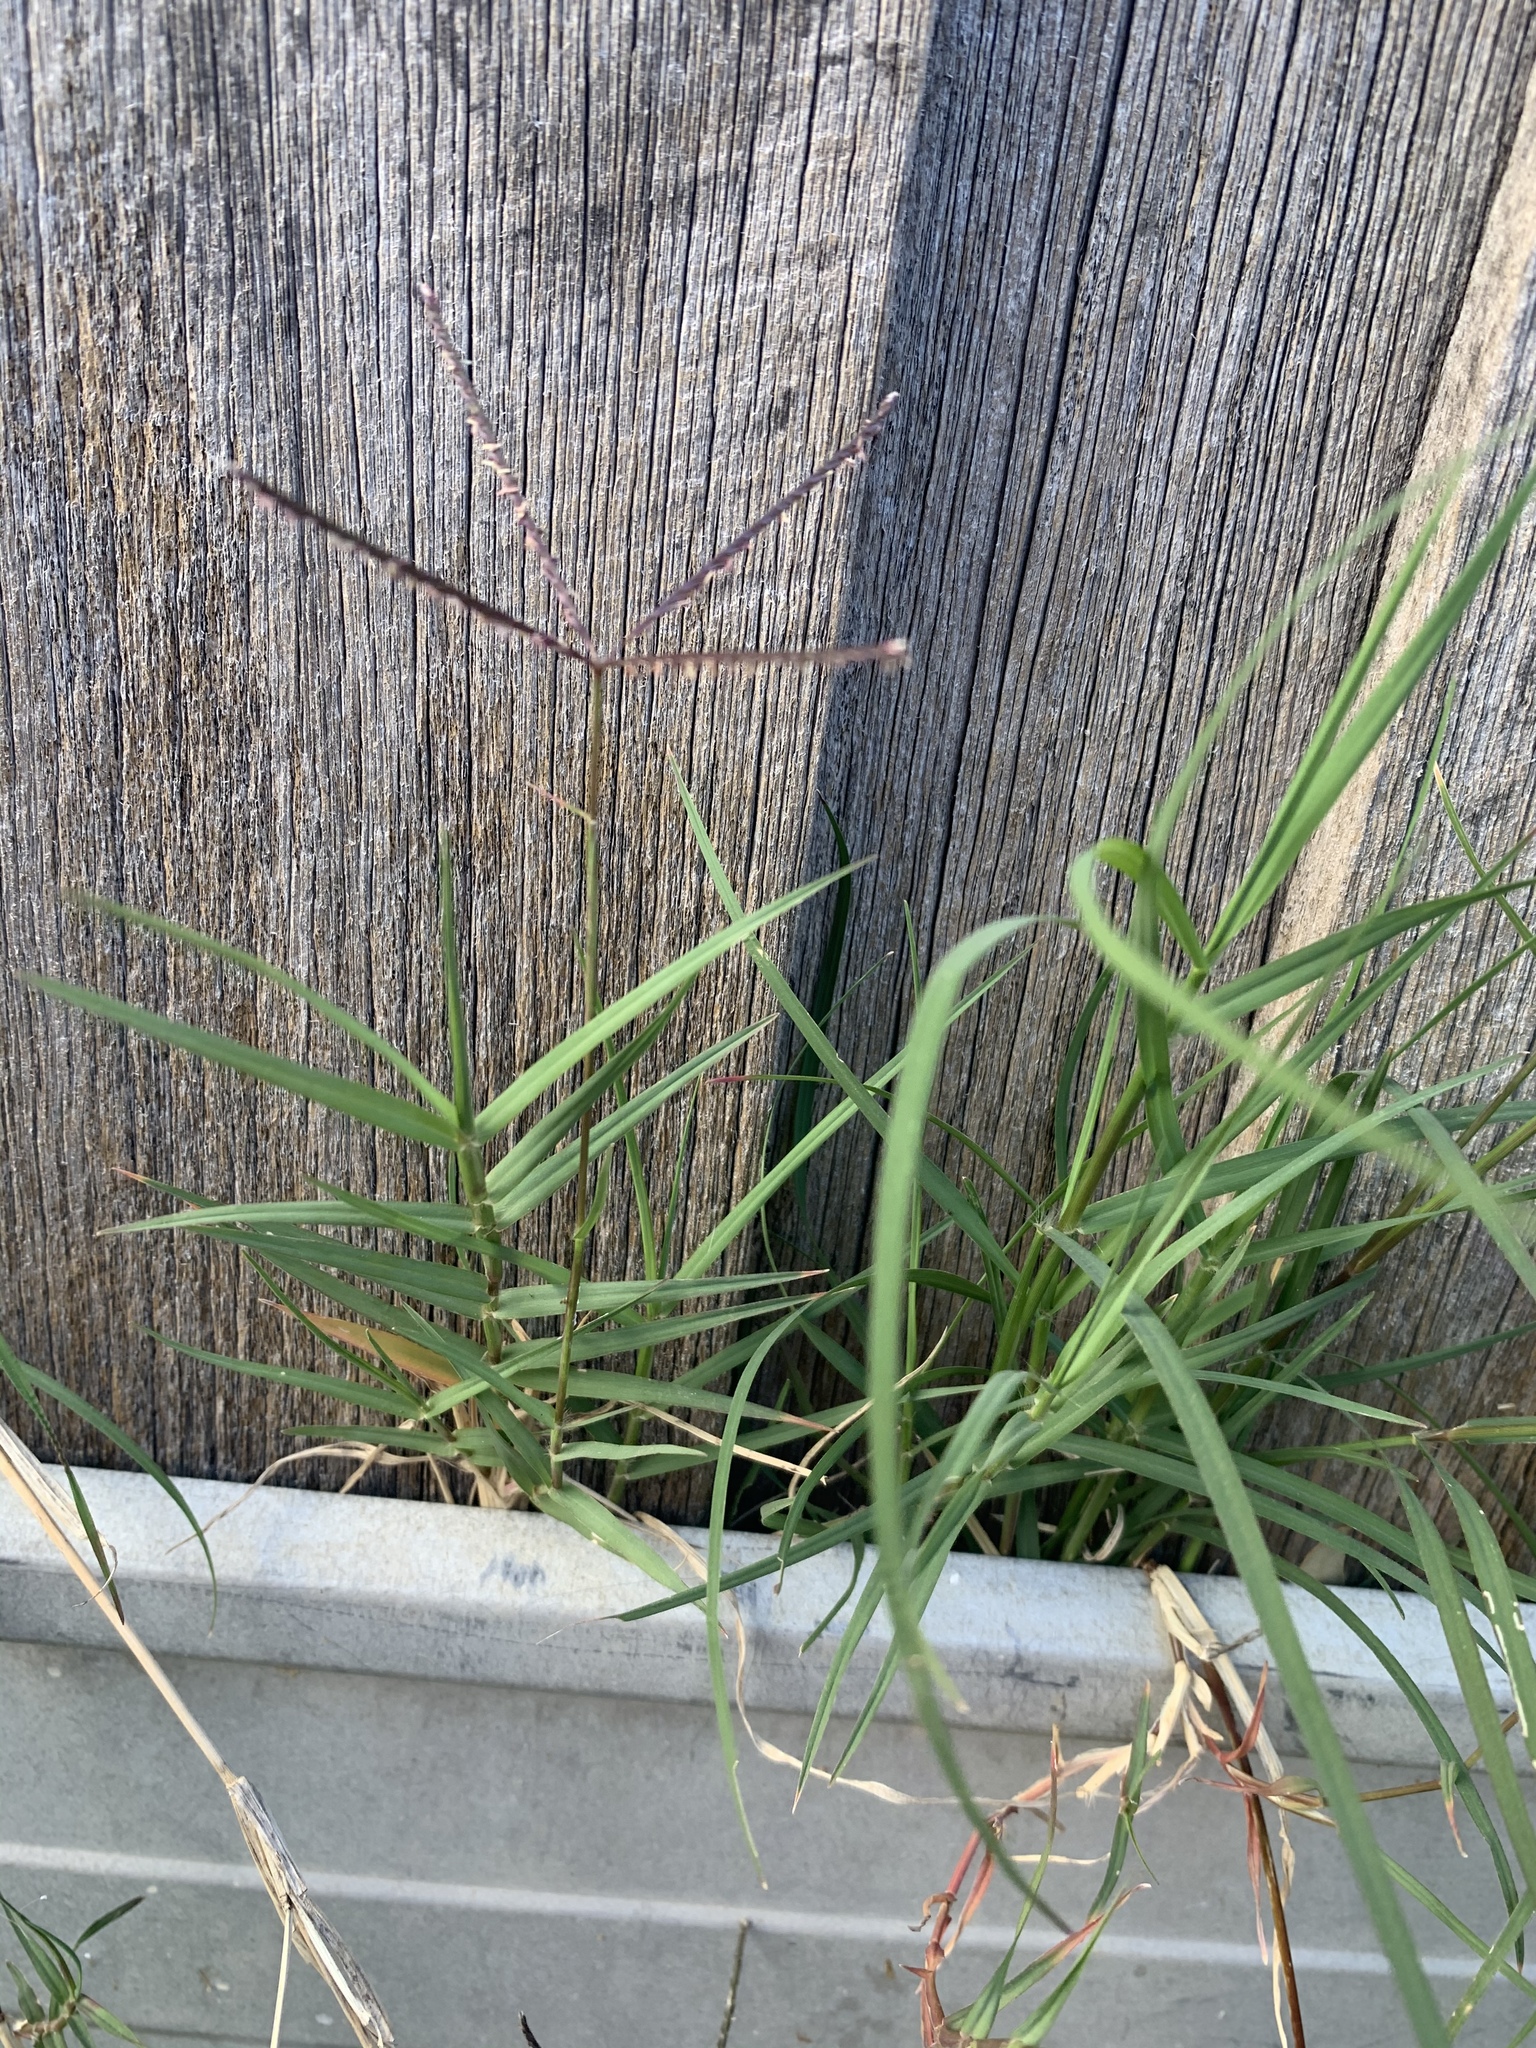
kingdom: Plantae
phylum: Tracheophyta
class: Liliopsida
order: Poales
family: Poaceae
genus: Cynodon
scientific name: Cynodon dactylon
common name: Bermuda grass
